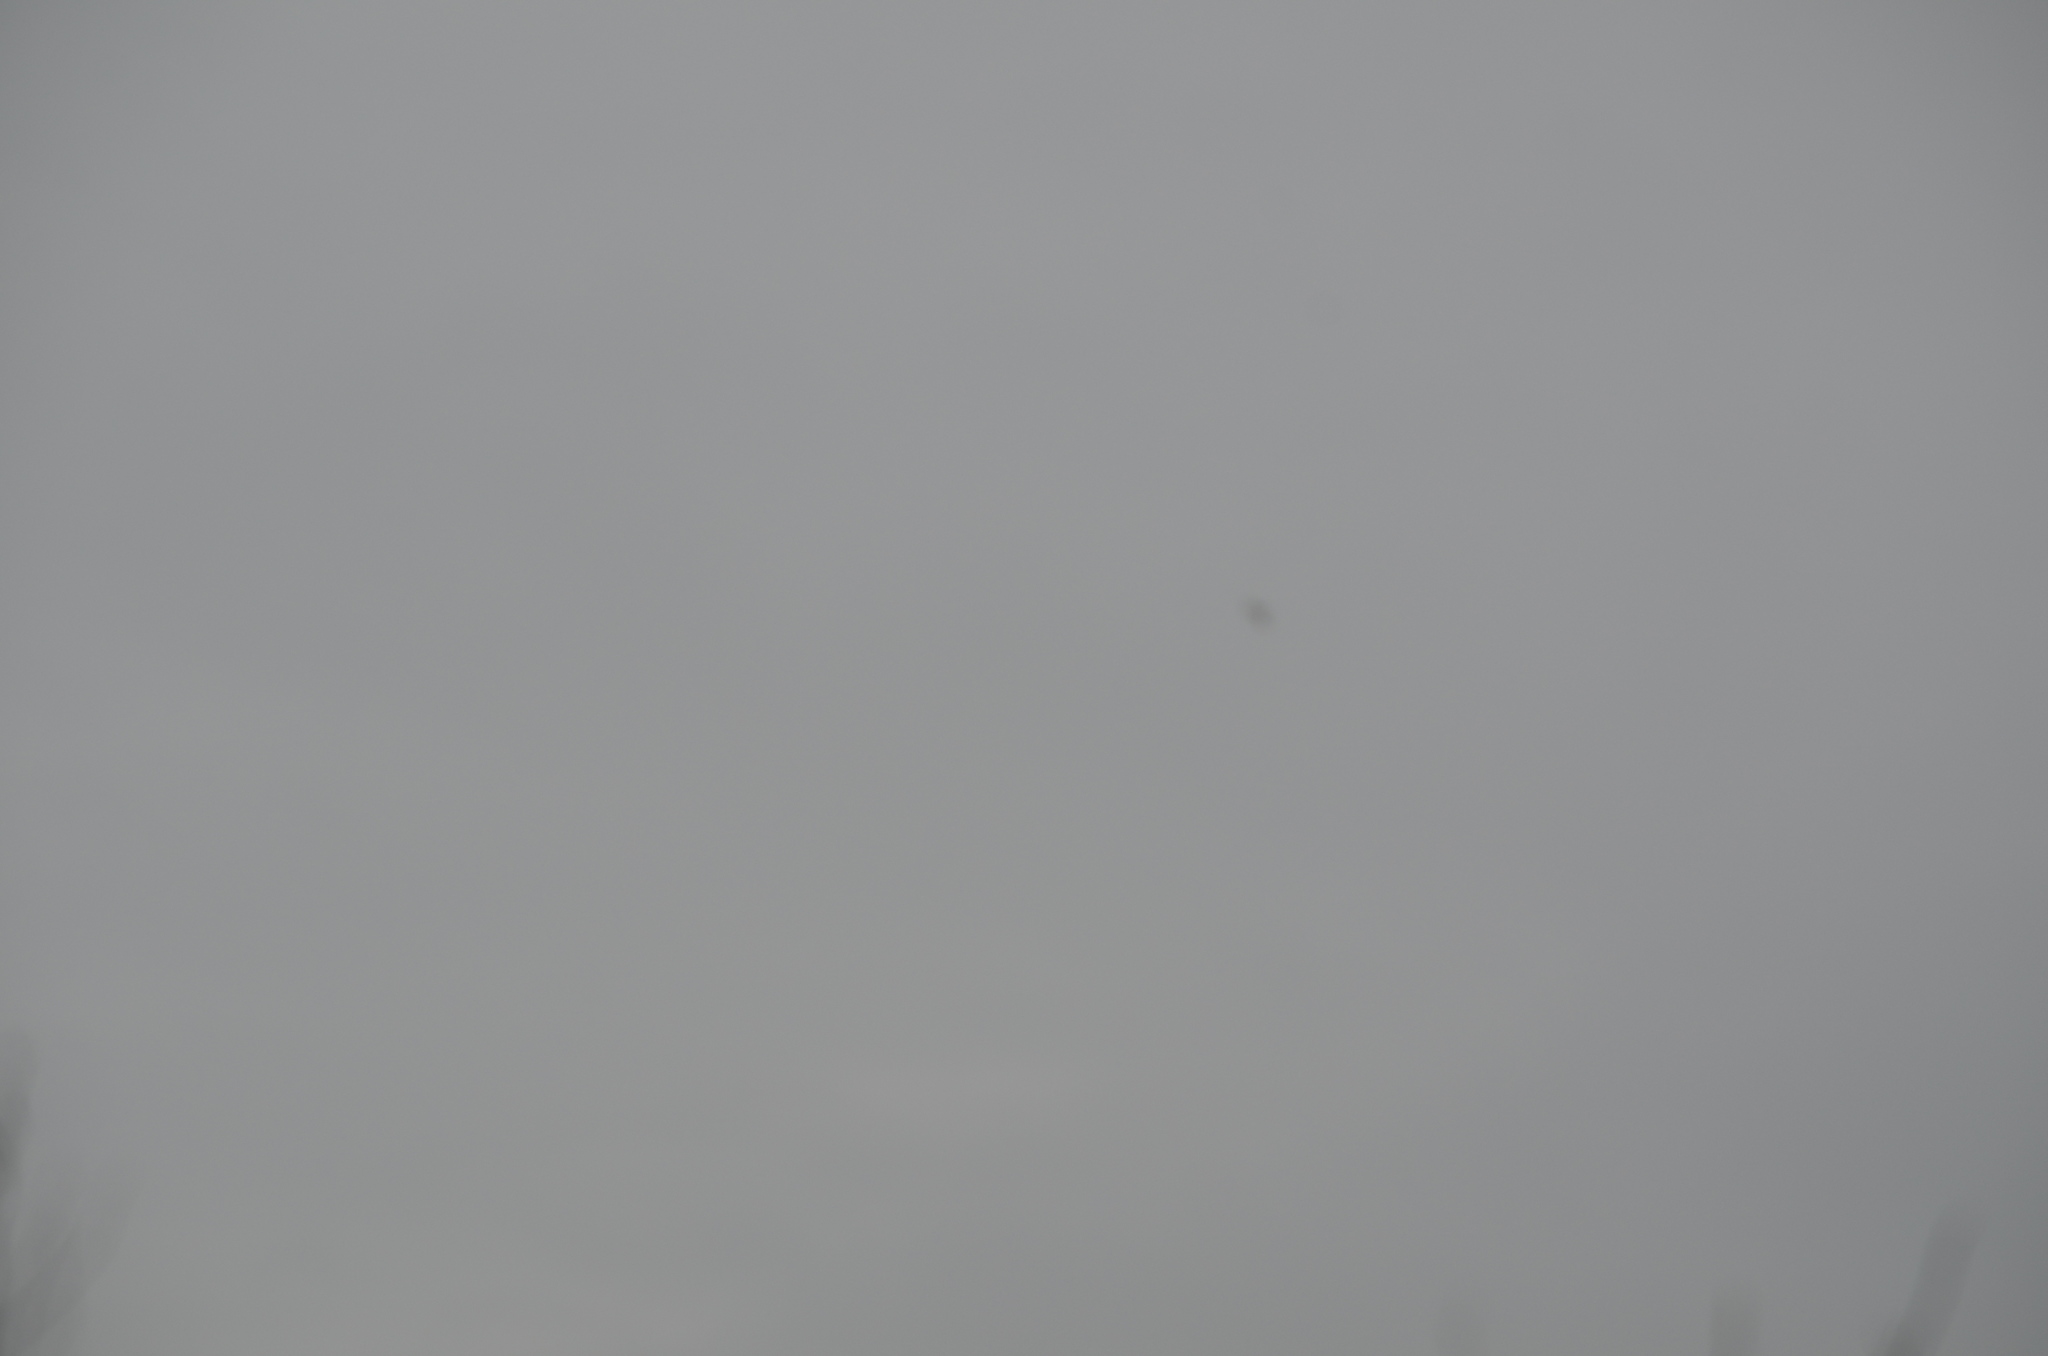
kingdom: Animalia
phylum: Chordata
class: Aves
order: Charadriiformes
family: Laridae
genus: Hydroprogne
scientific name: Hydroprogne caspia
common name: Caspian tern
